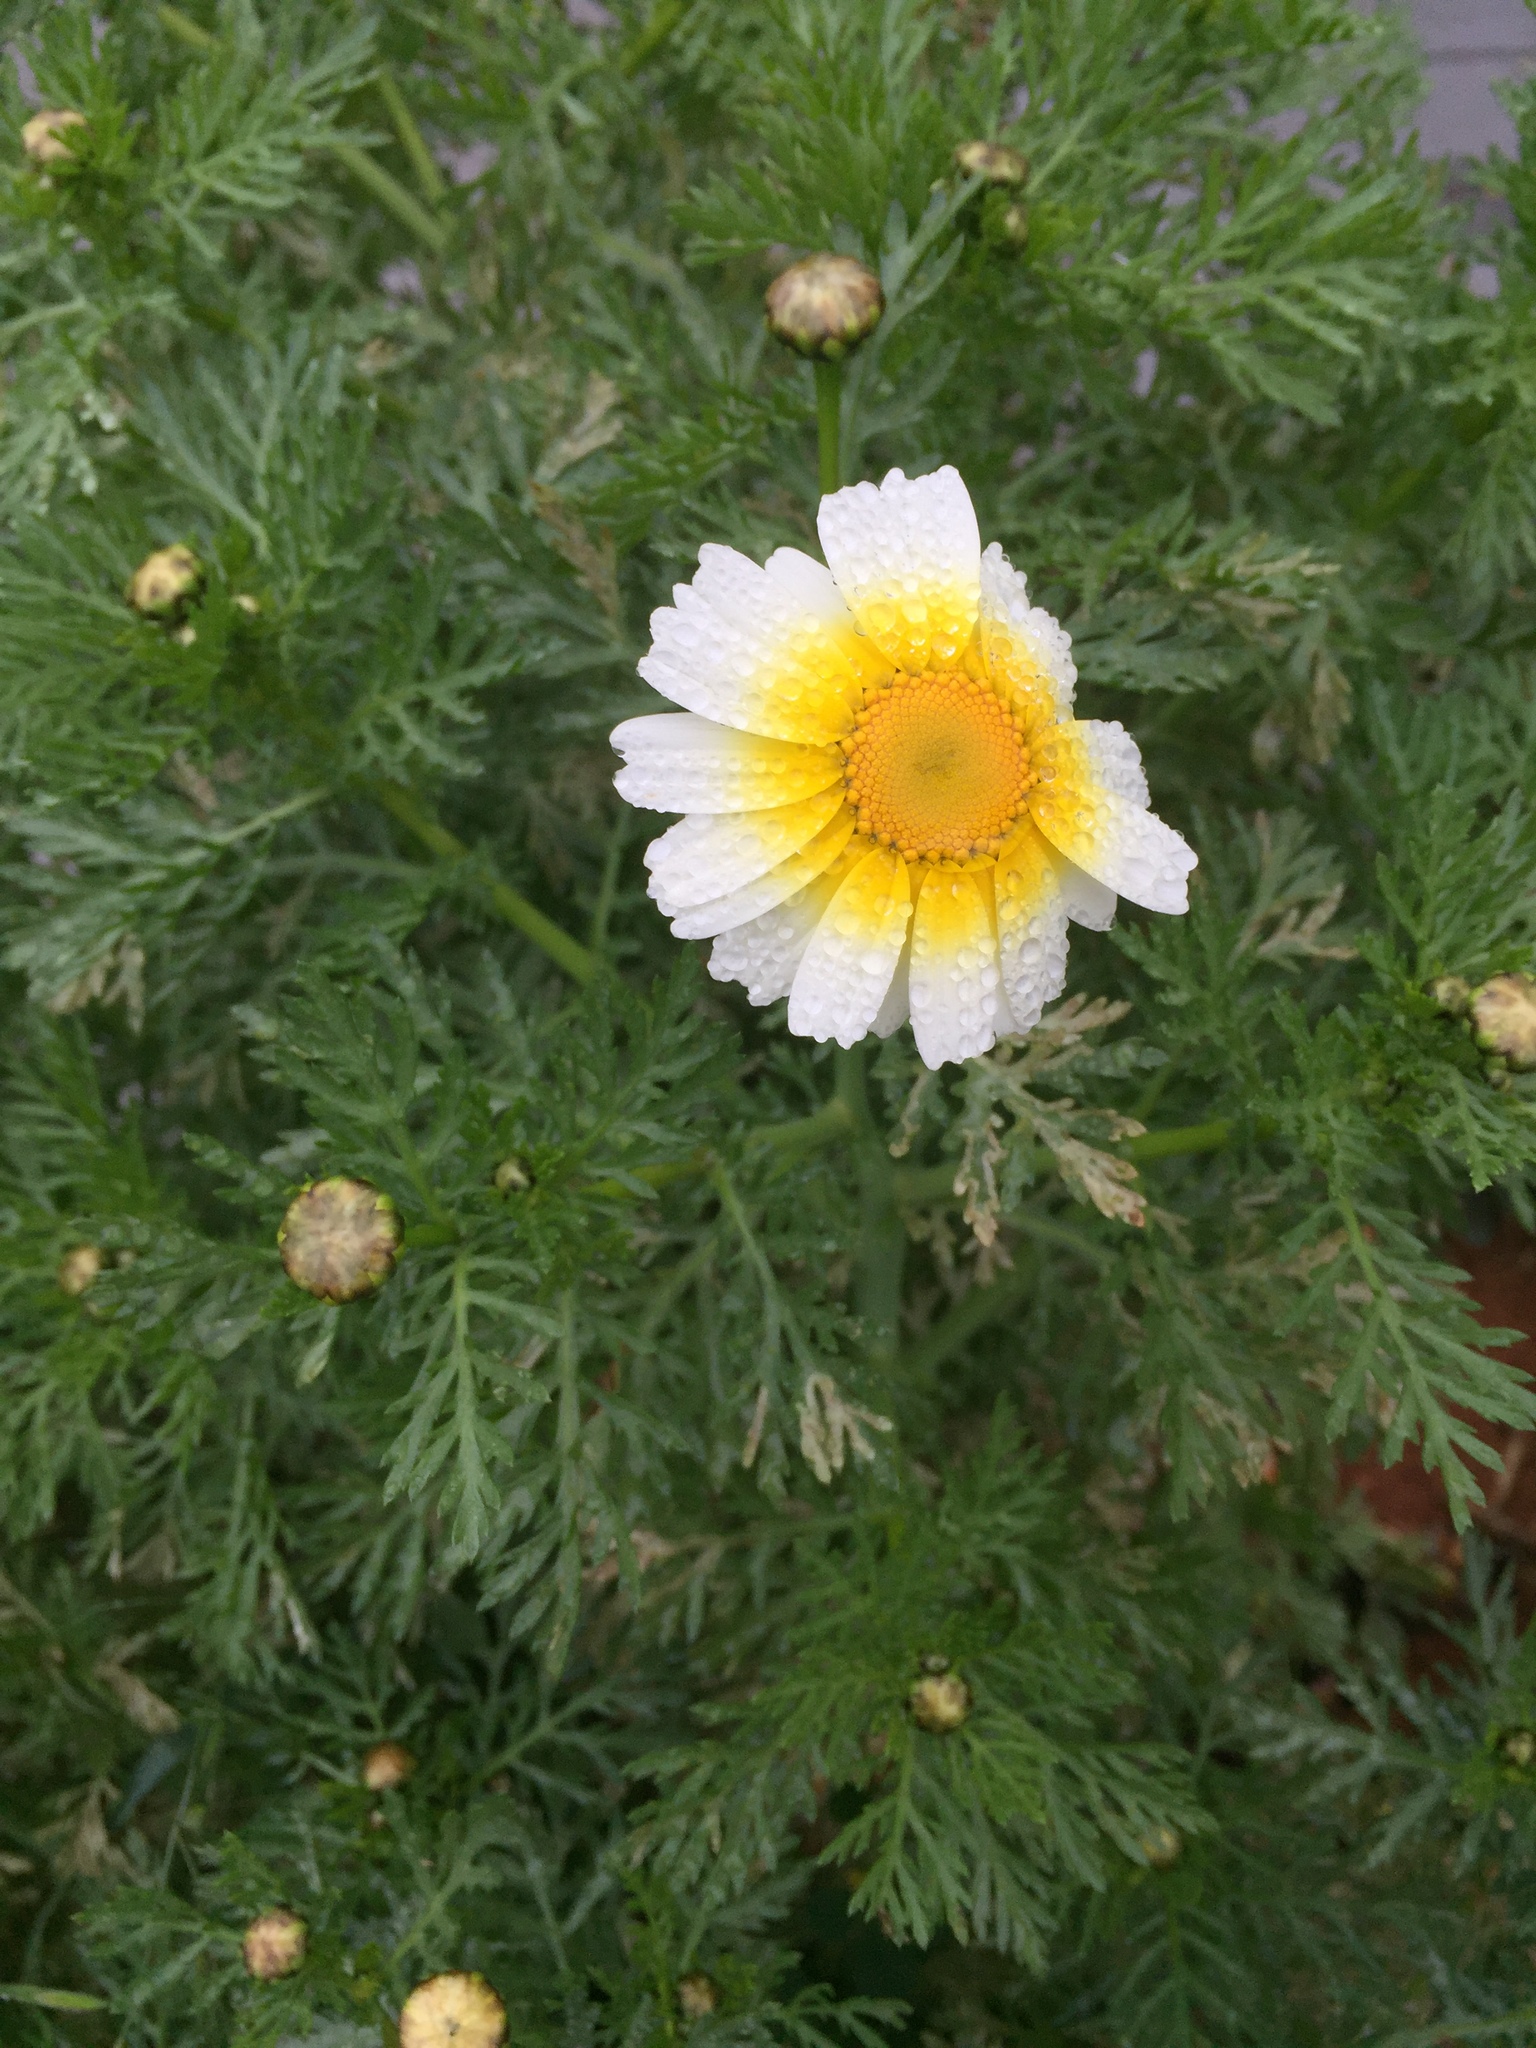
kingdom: Plantae
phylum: Tracheophyta
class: Magnoliopsida
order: Asterales
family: Asteraceae
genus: Glebionis
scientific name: Glebionis coronaria
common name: Crowndaisy
